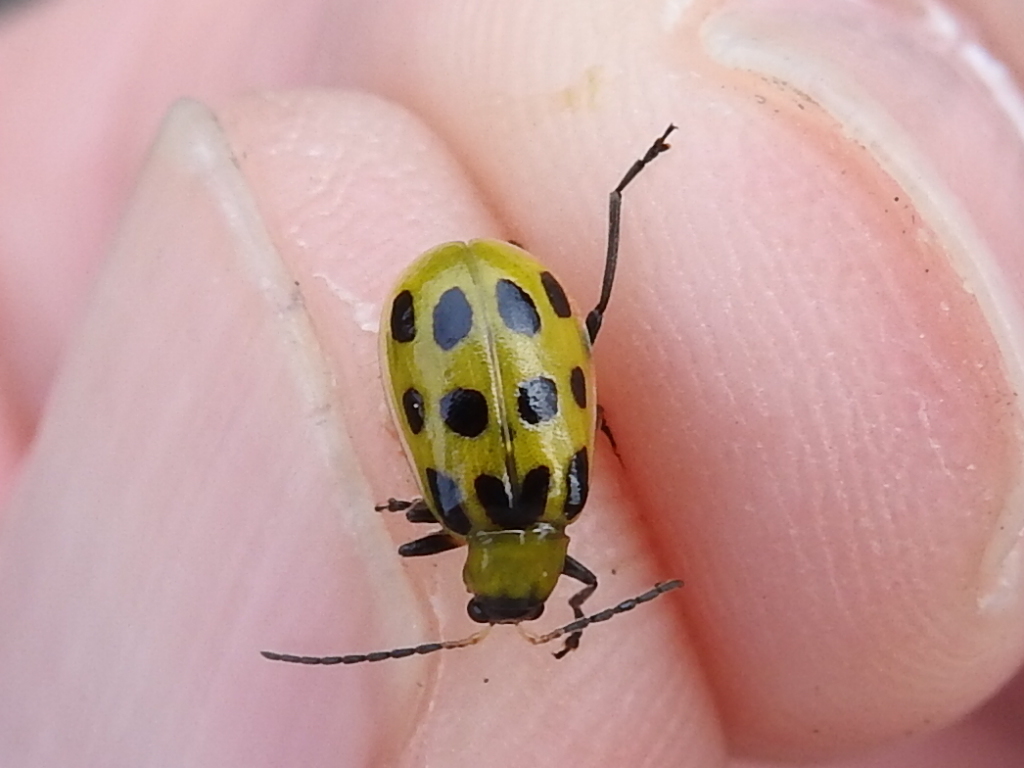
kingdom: Animalia
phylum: Arthropoda
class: Insecta
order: Coleoptera
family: Chrysomelidae
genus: Diabrotica
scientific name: Diabrotica undecimpunctata
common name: Spotted cucumber beetle
